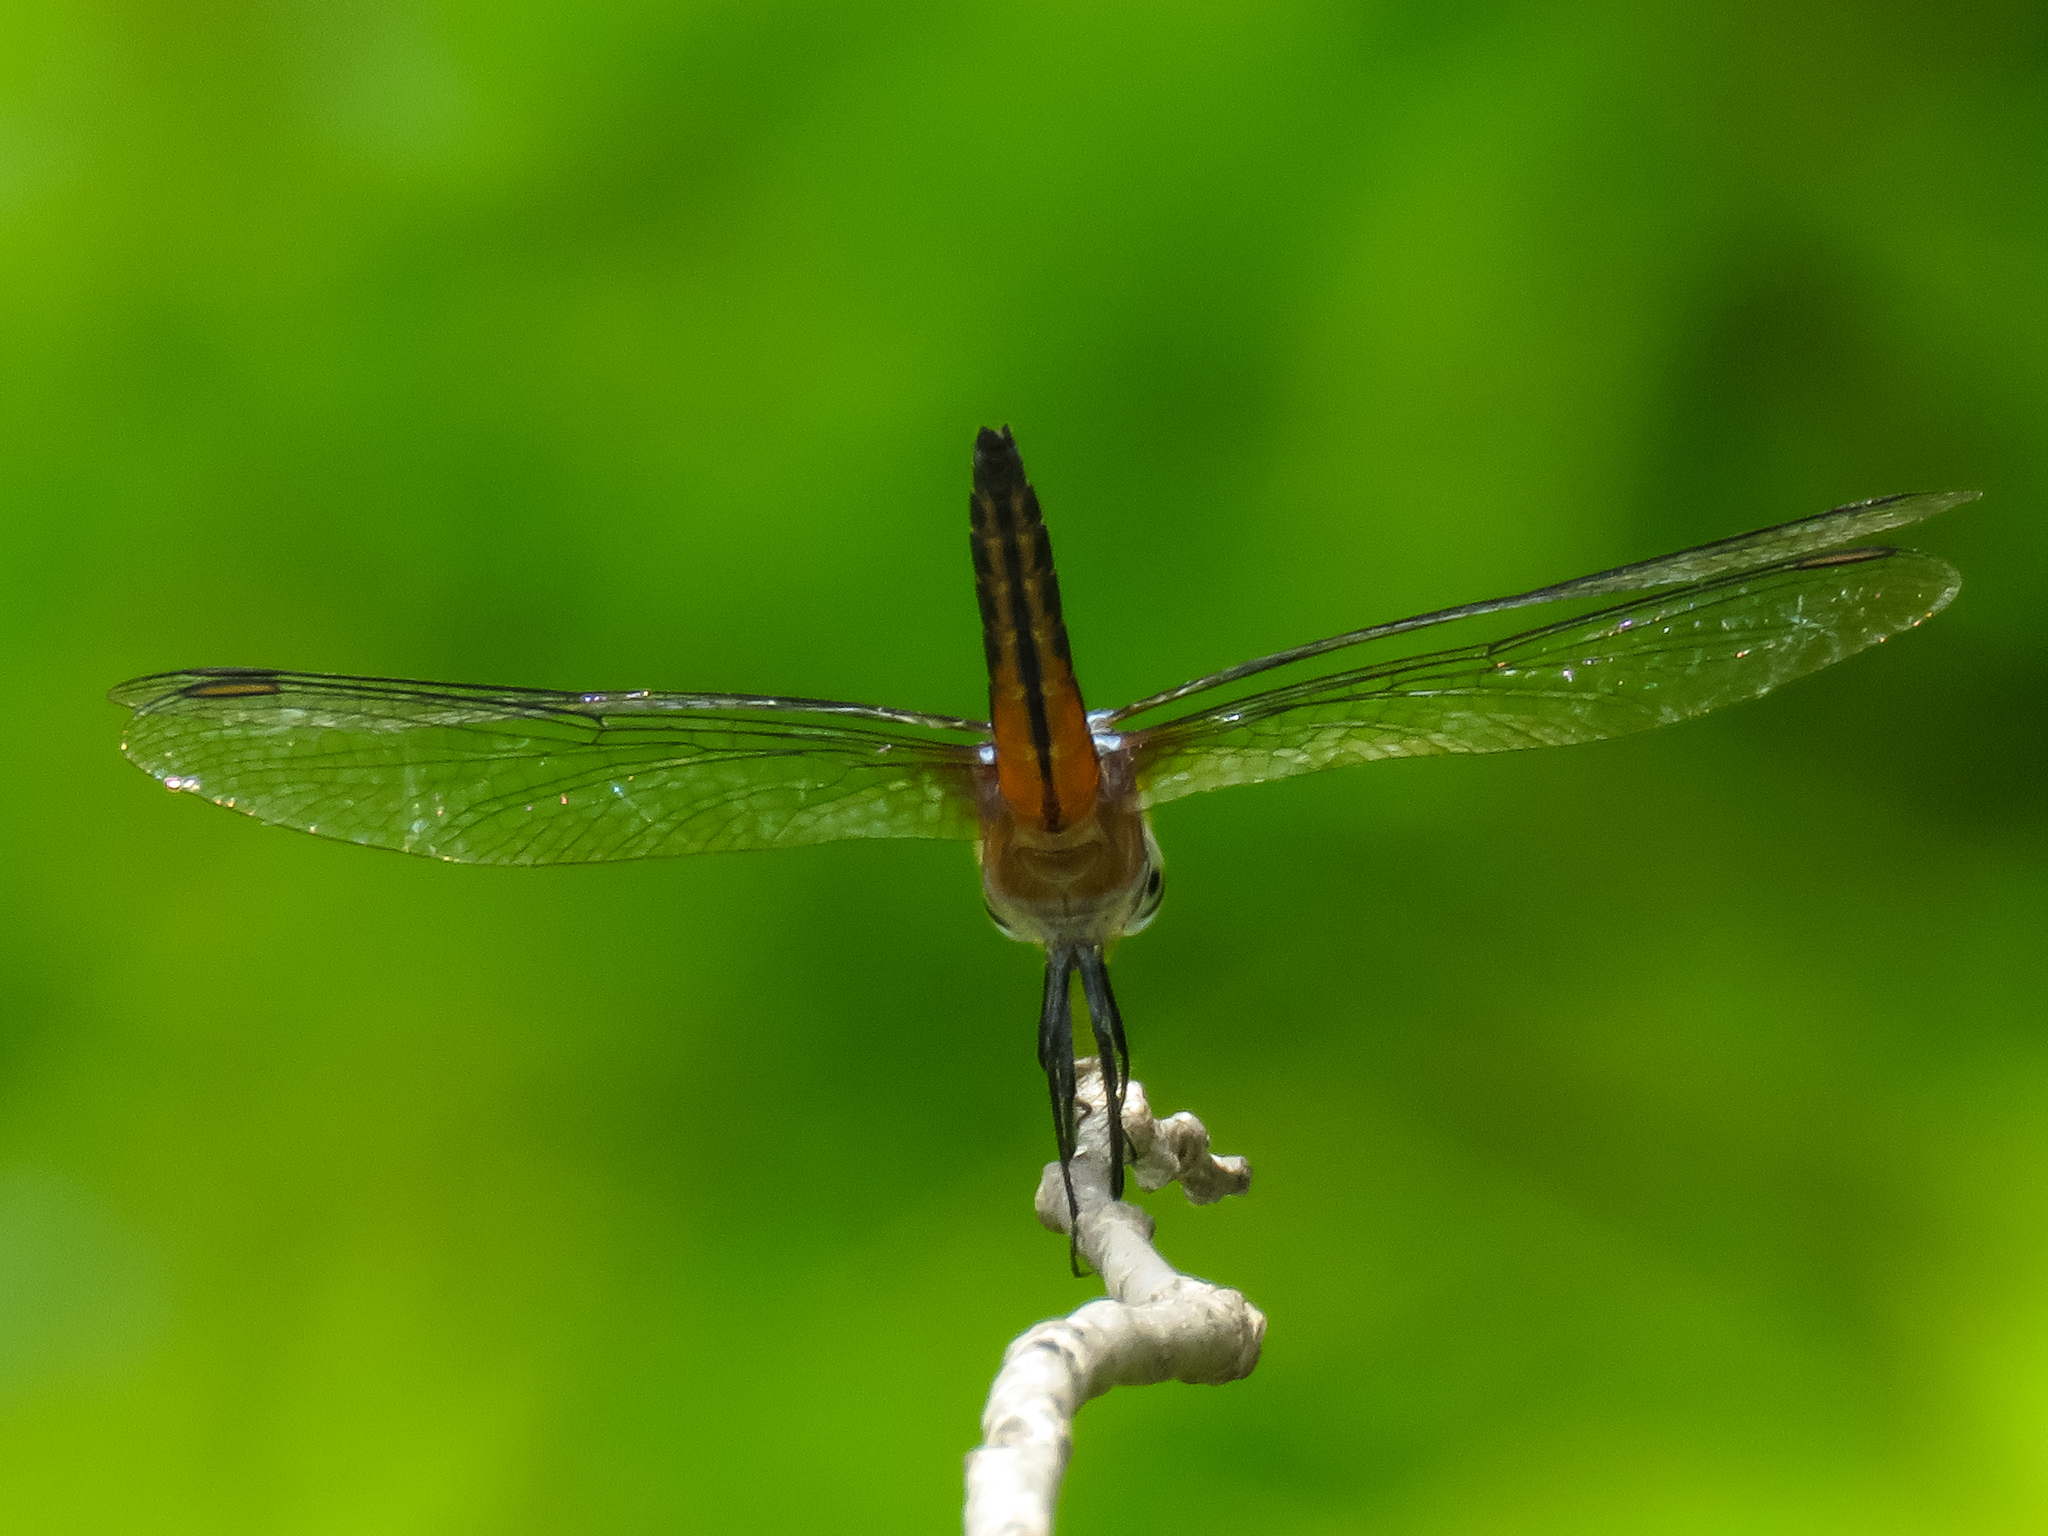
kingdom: Animalia
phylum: Arthropoda
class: Insecta
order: Odonata
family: Libellulidae
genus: Brachydiplax
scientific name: Brachydiplax chalybea
